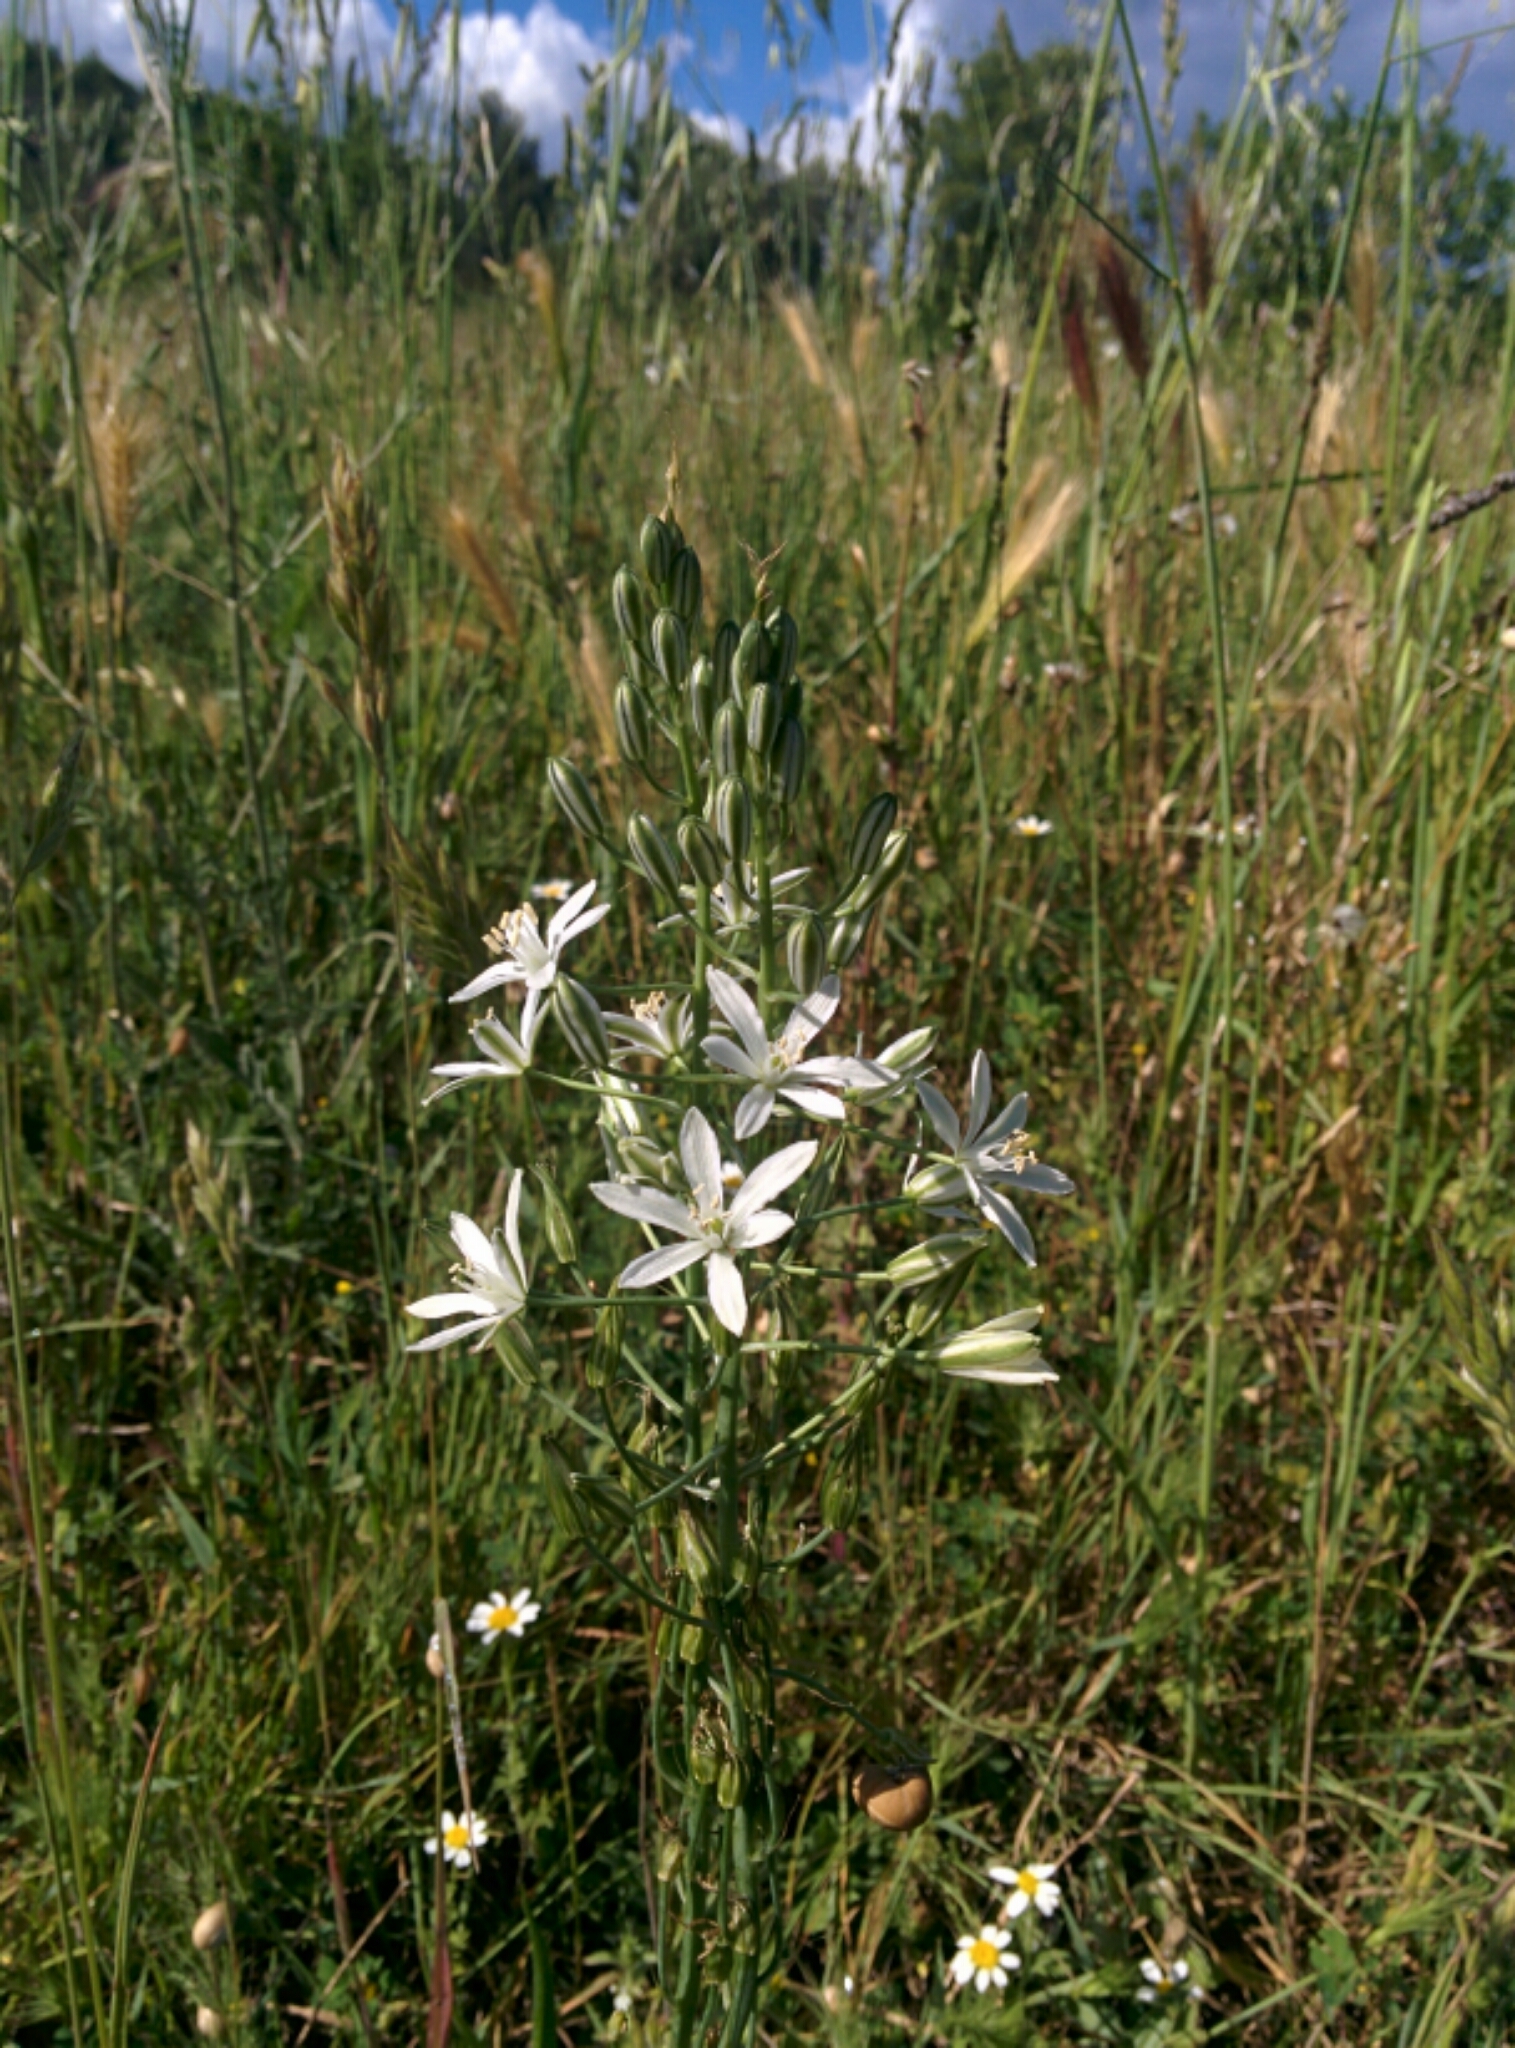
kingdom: Plantae
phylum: Tracheophyta
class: Liliopsida
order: Asparagales
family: Asparagaceae
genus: Ornithogalum
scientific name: Ornithogalum narbonense
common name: Bath-asparagus
